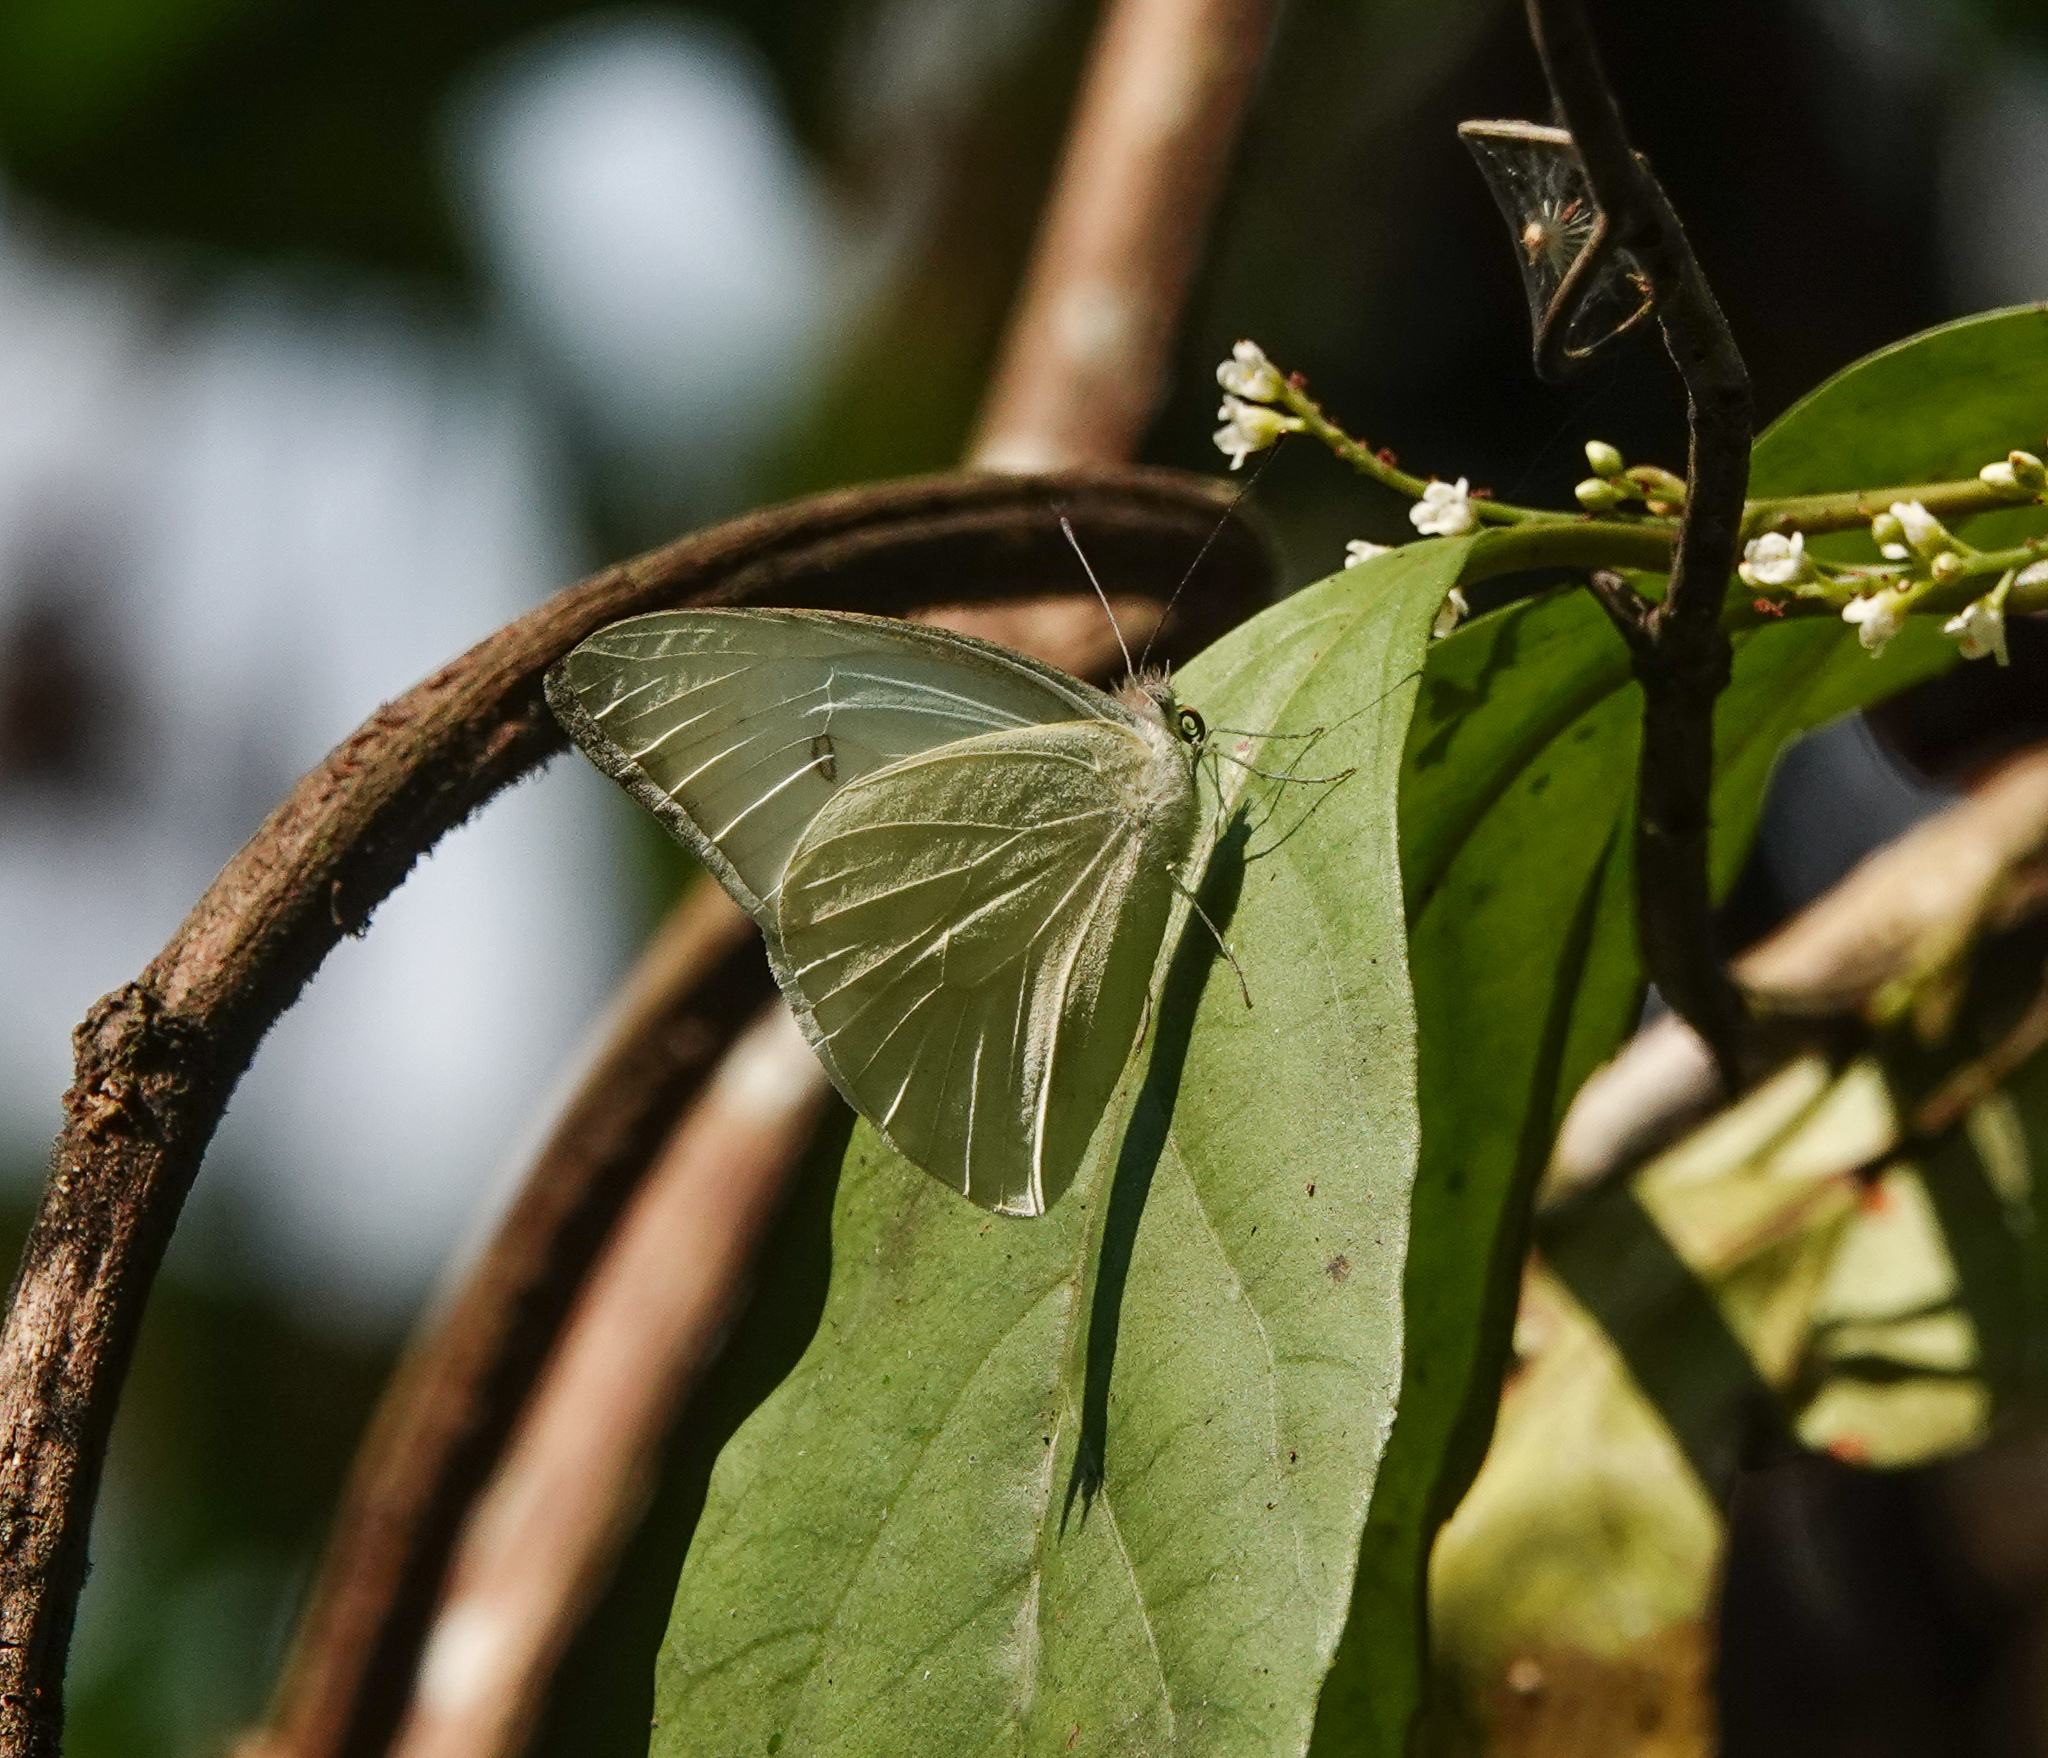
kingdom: Animalia
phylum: Arthropoda
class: Insecta
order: Lepidoptera
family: Pieridae
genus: Appias
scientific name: Appias albina
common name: Common albatross
